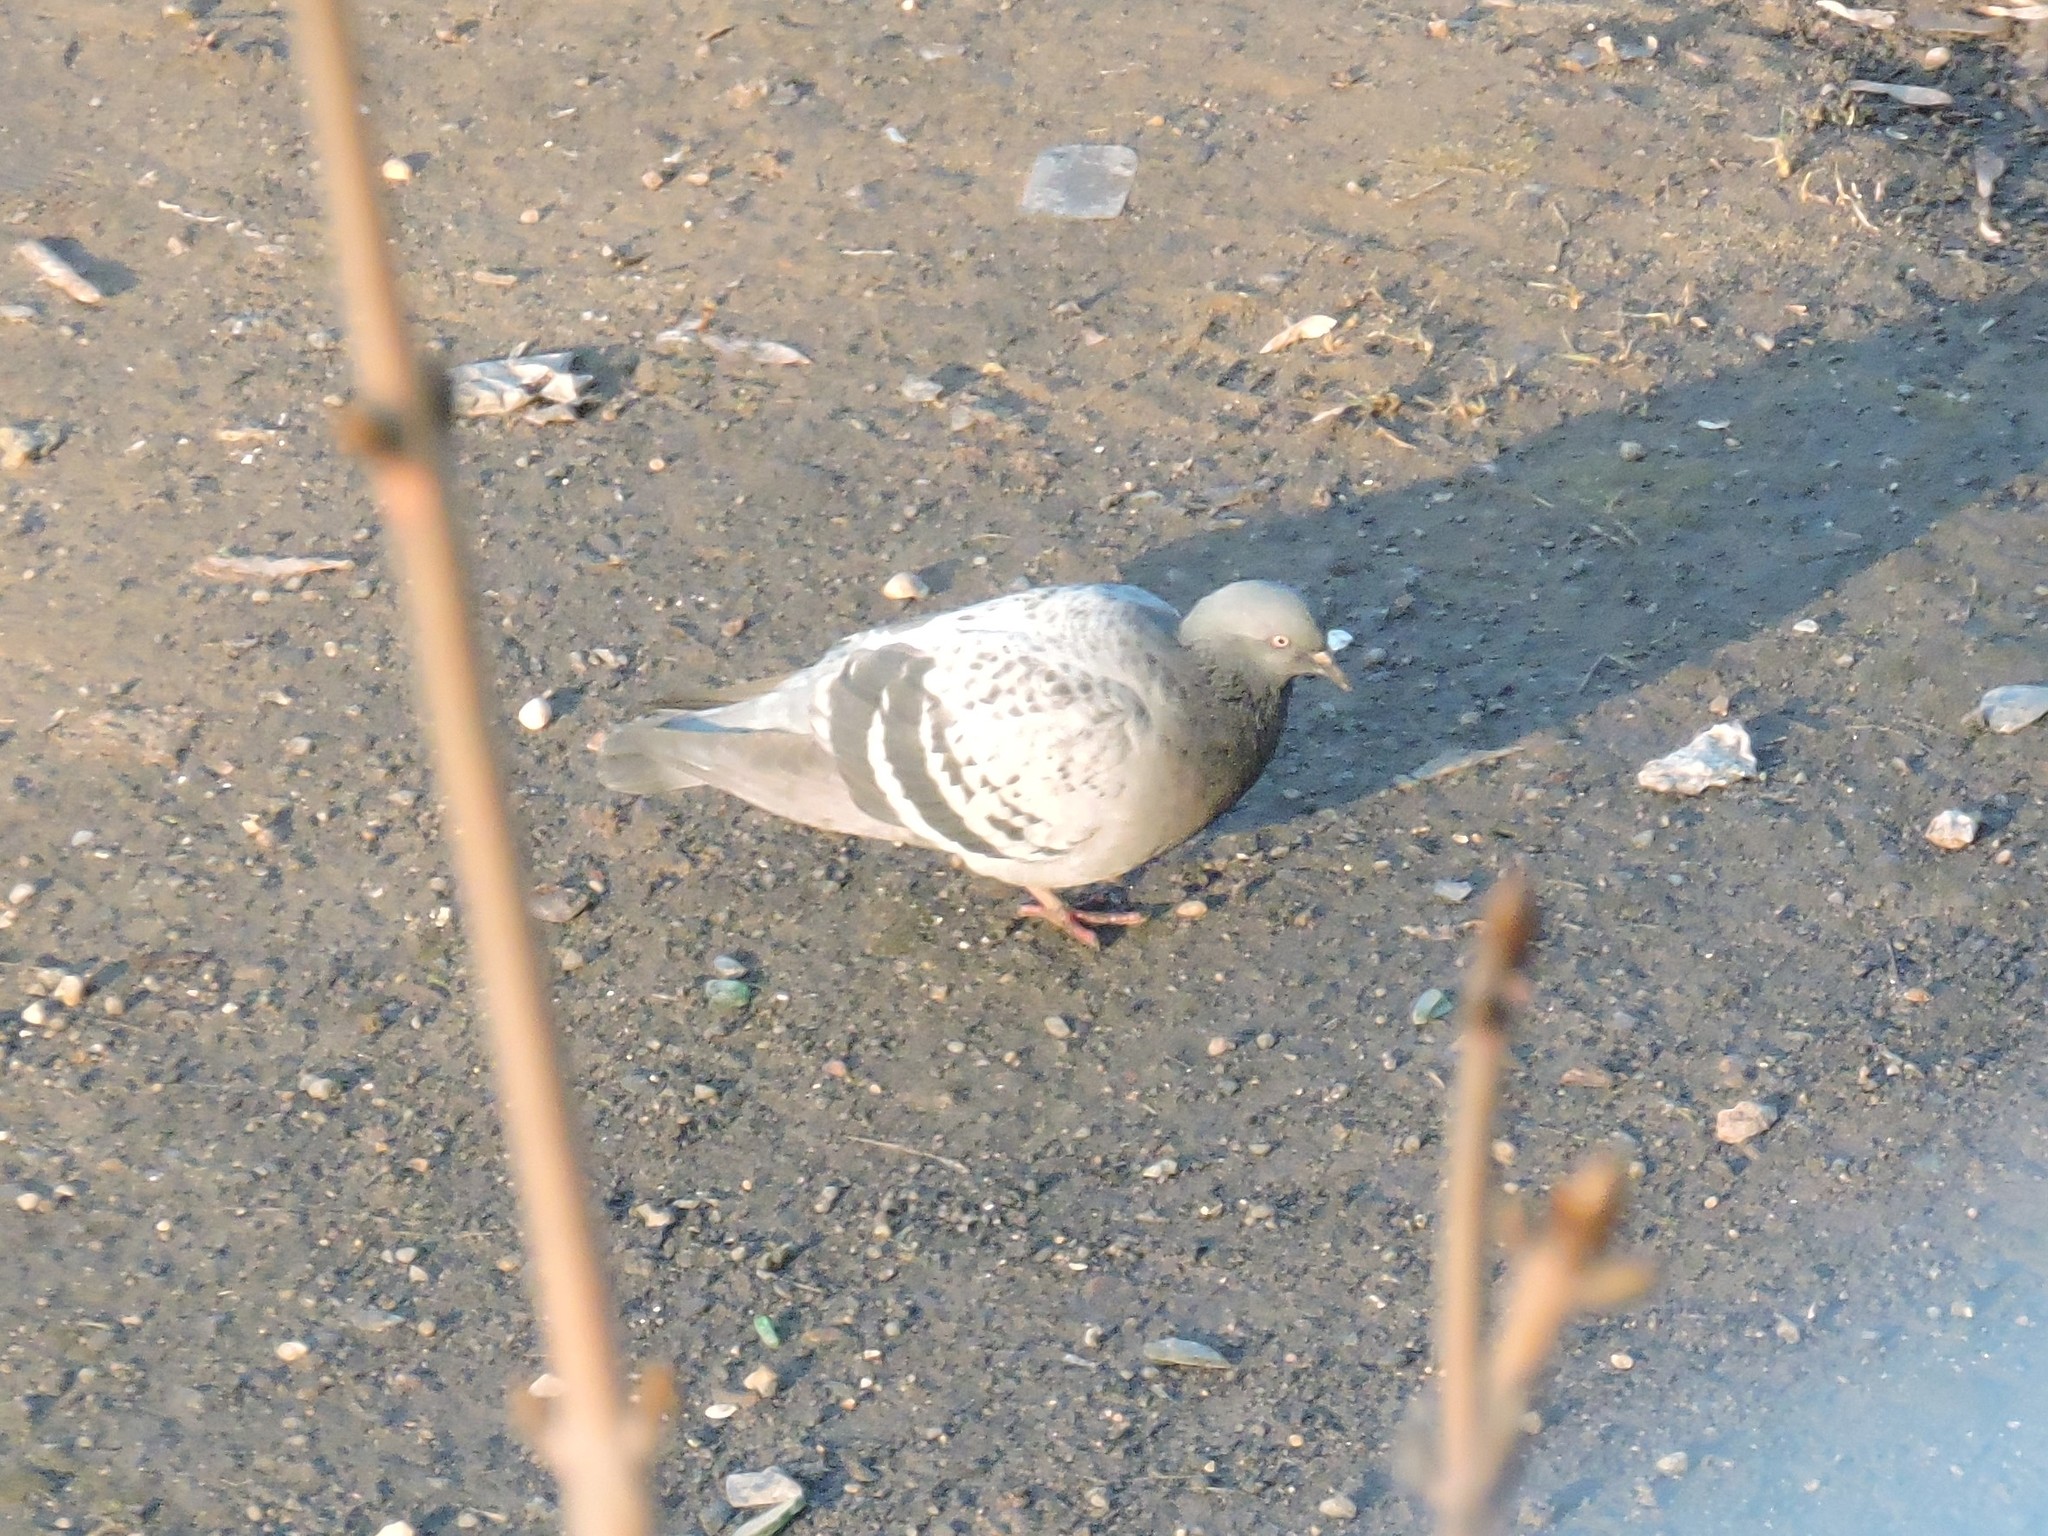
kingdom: Animalia
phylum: Chordata
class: Aves
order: Columbiformes
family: Columbidae
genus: Columba
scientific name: Columba livia
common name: Rock pigeon
